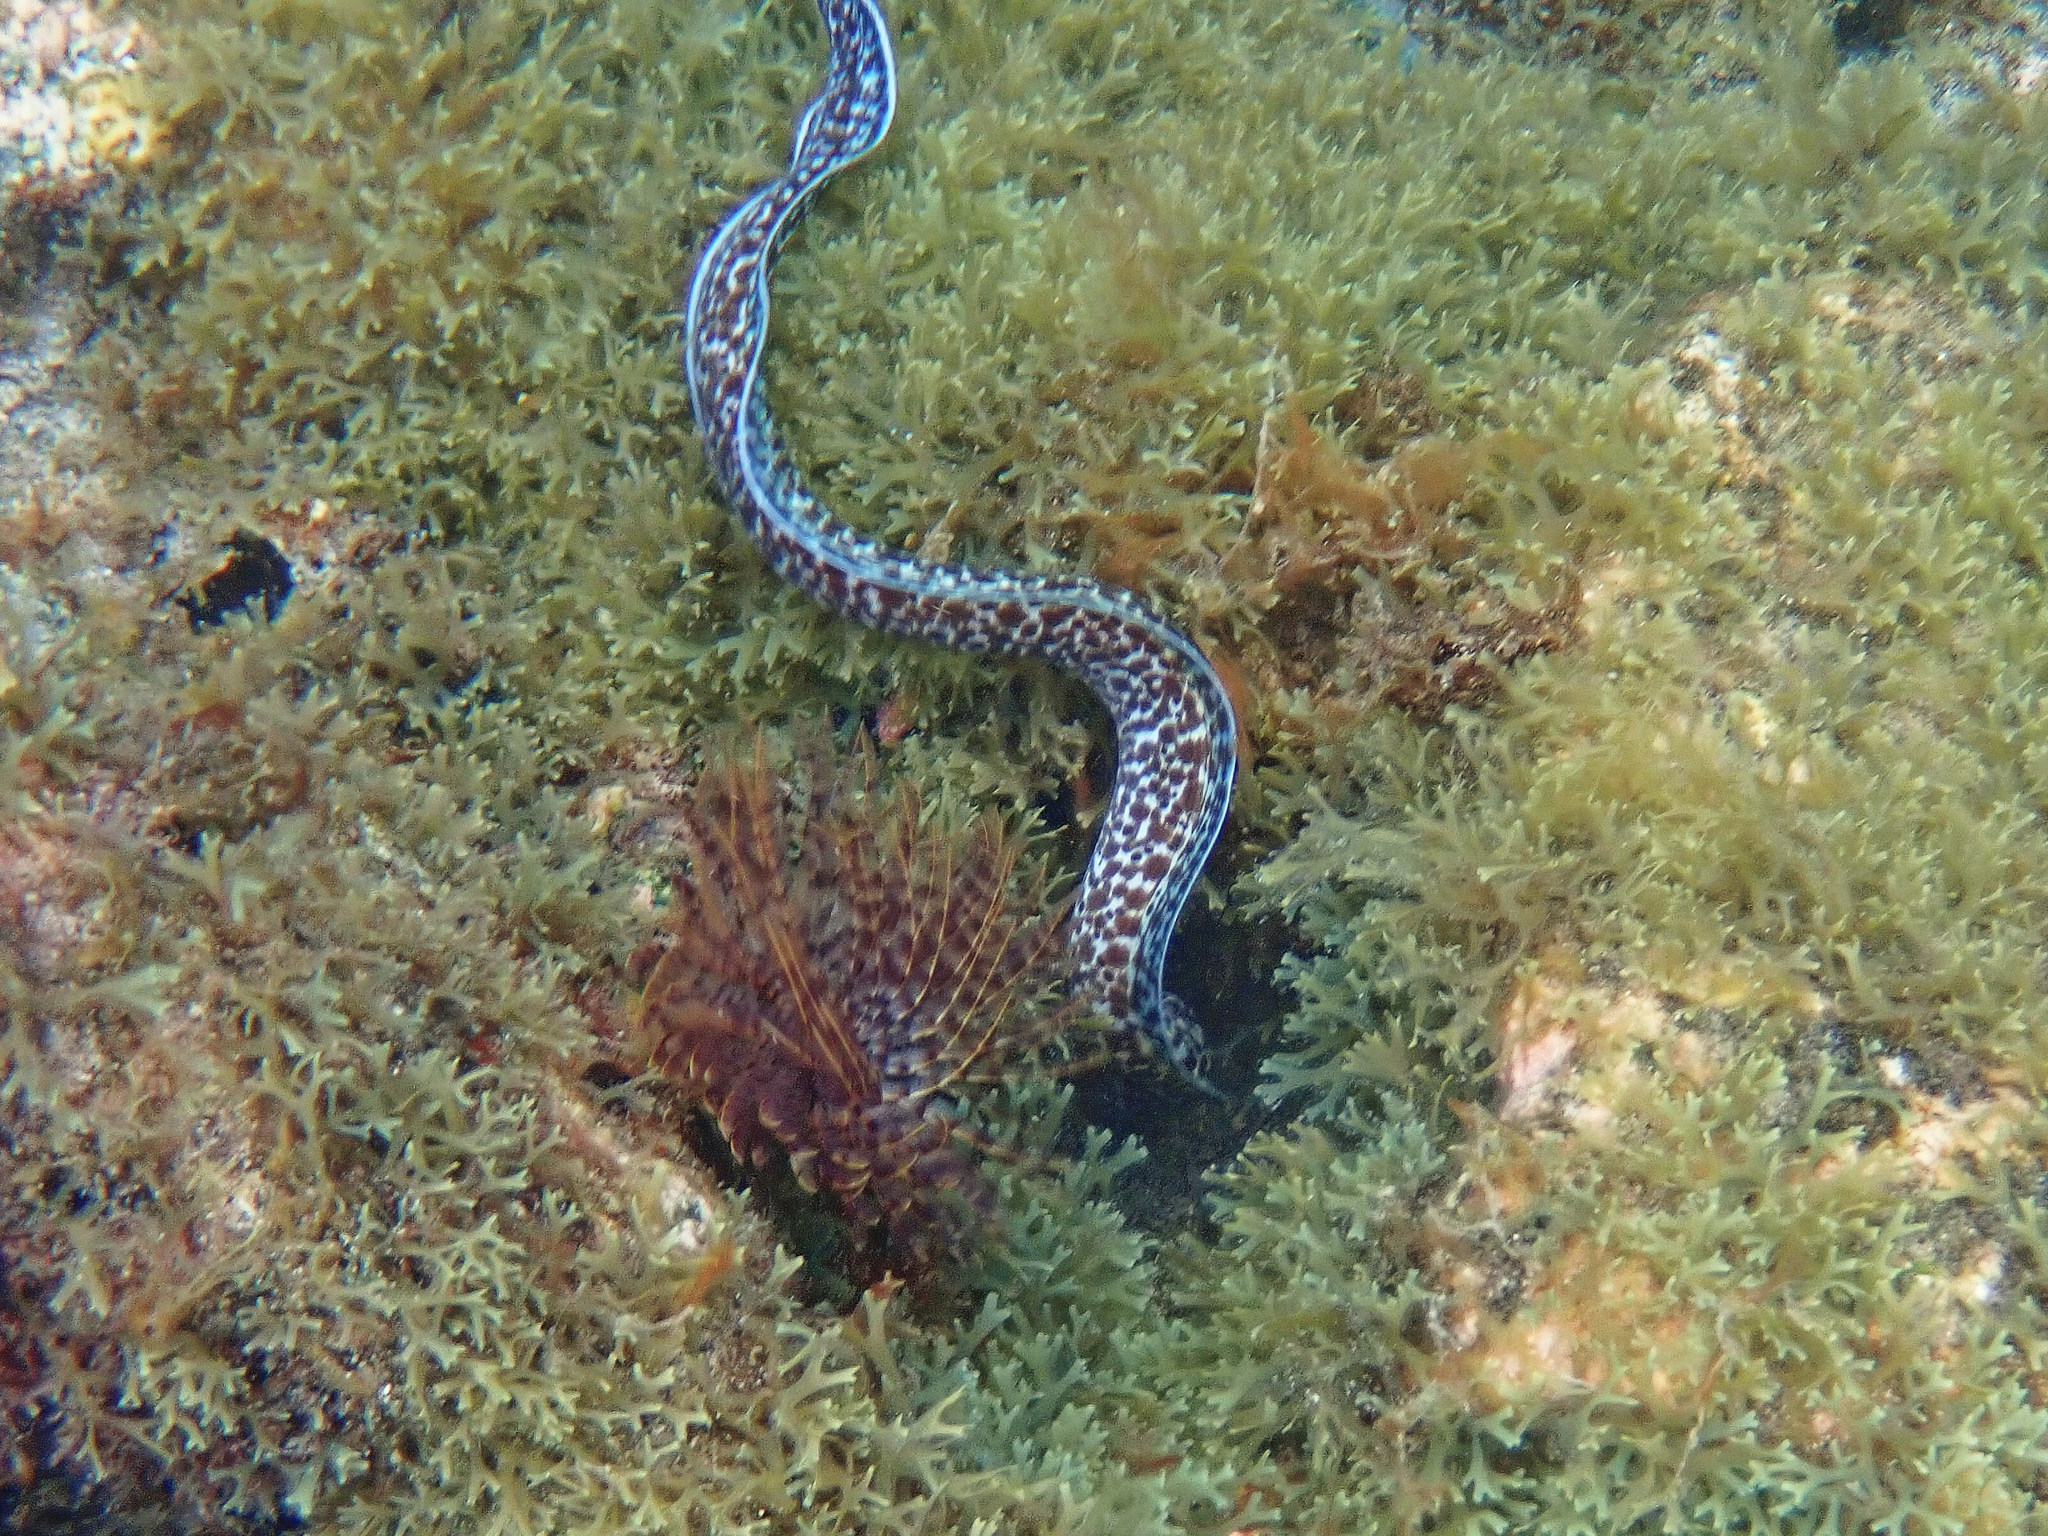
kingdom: Animalia
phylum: Chordata
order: Anguilliformes
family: Muraenidae
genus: Gymnothorax
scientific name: Gymnothorax moringa
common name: Spotted moray
